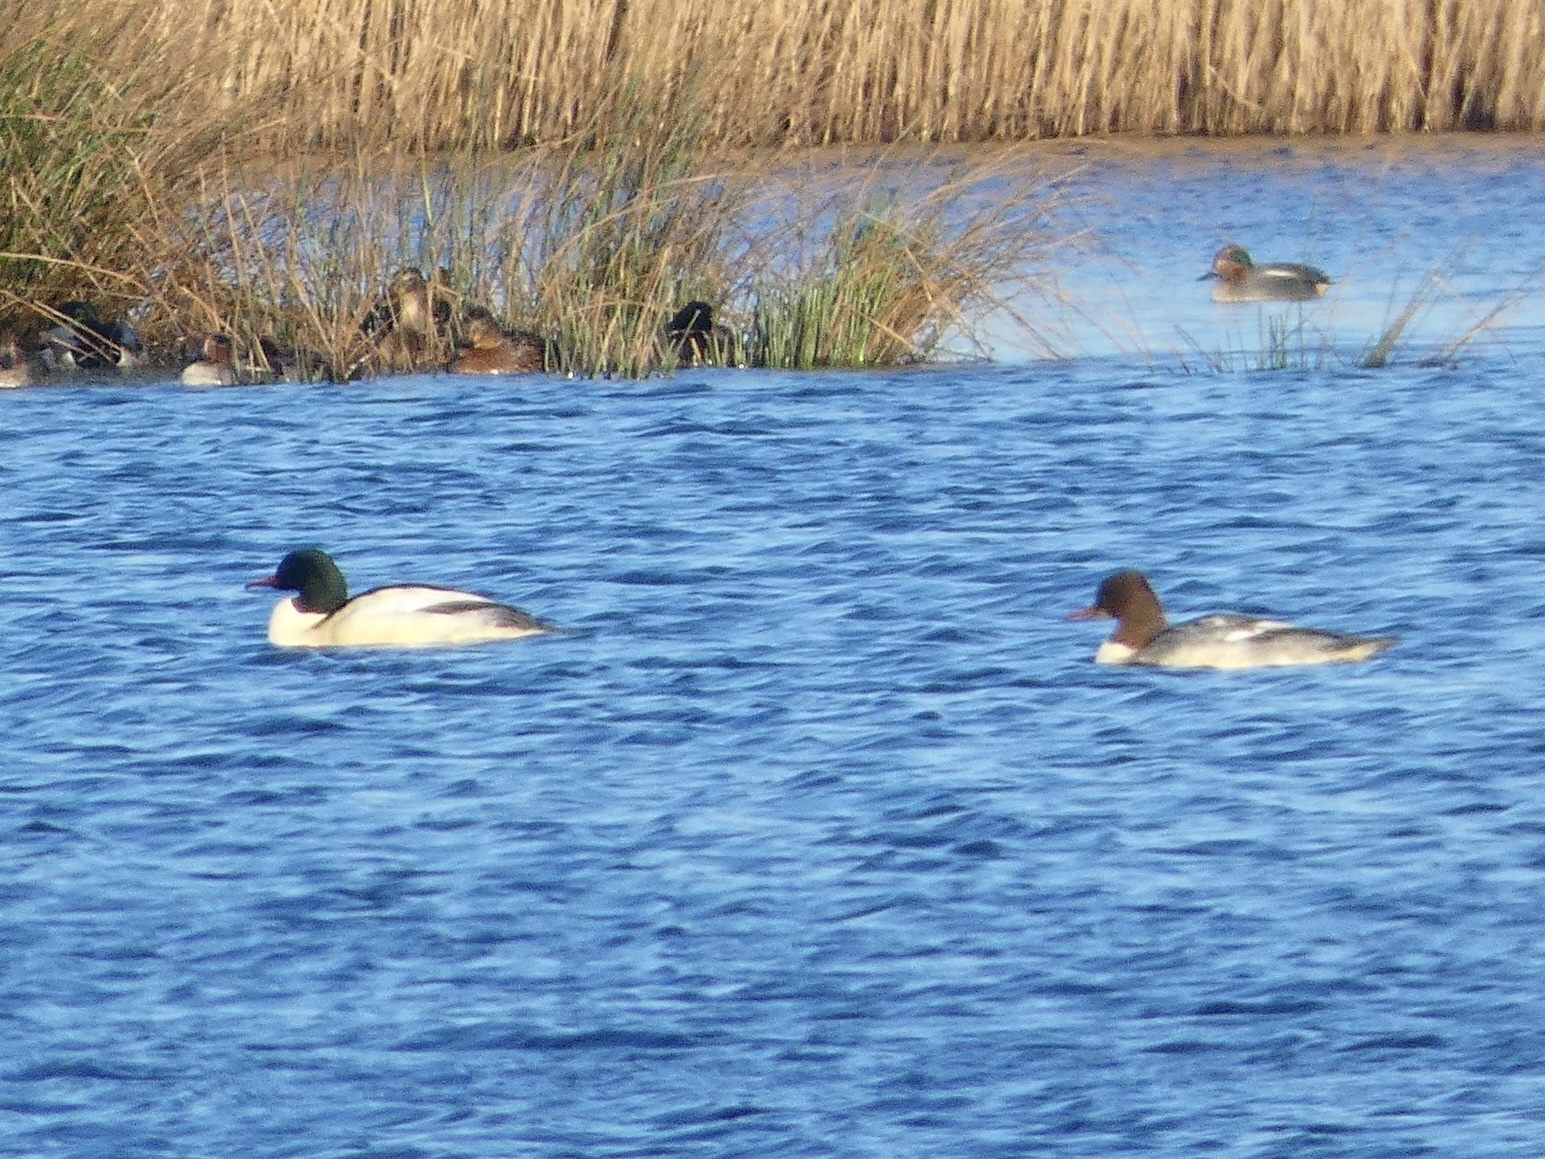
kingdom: Animalia
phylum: Chordata
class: Aves
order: Anseriformes
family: Anatidae
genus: Mergus
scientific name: Mergus merganser
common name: Common merganser
